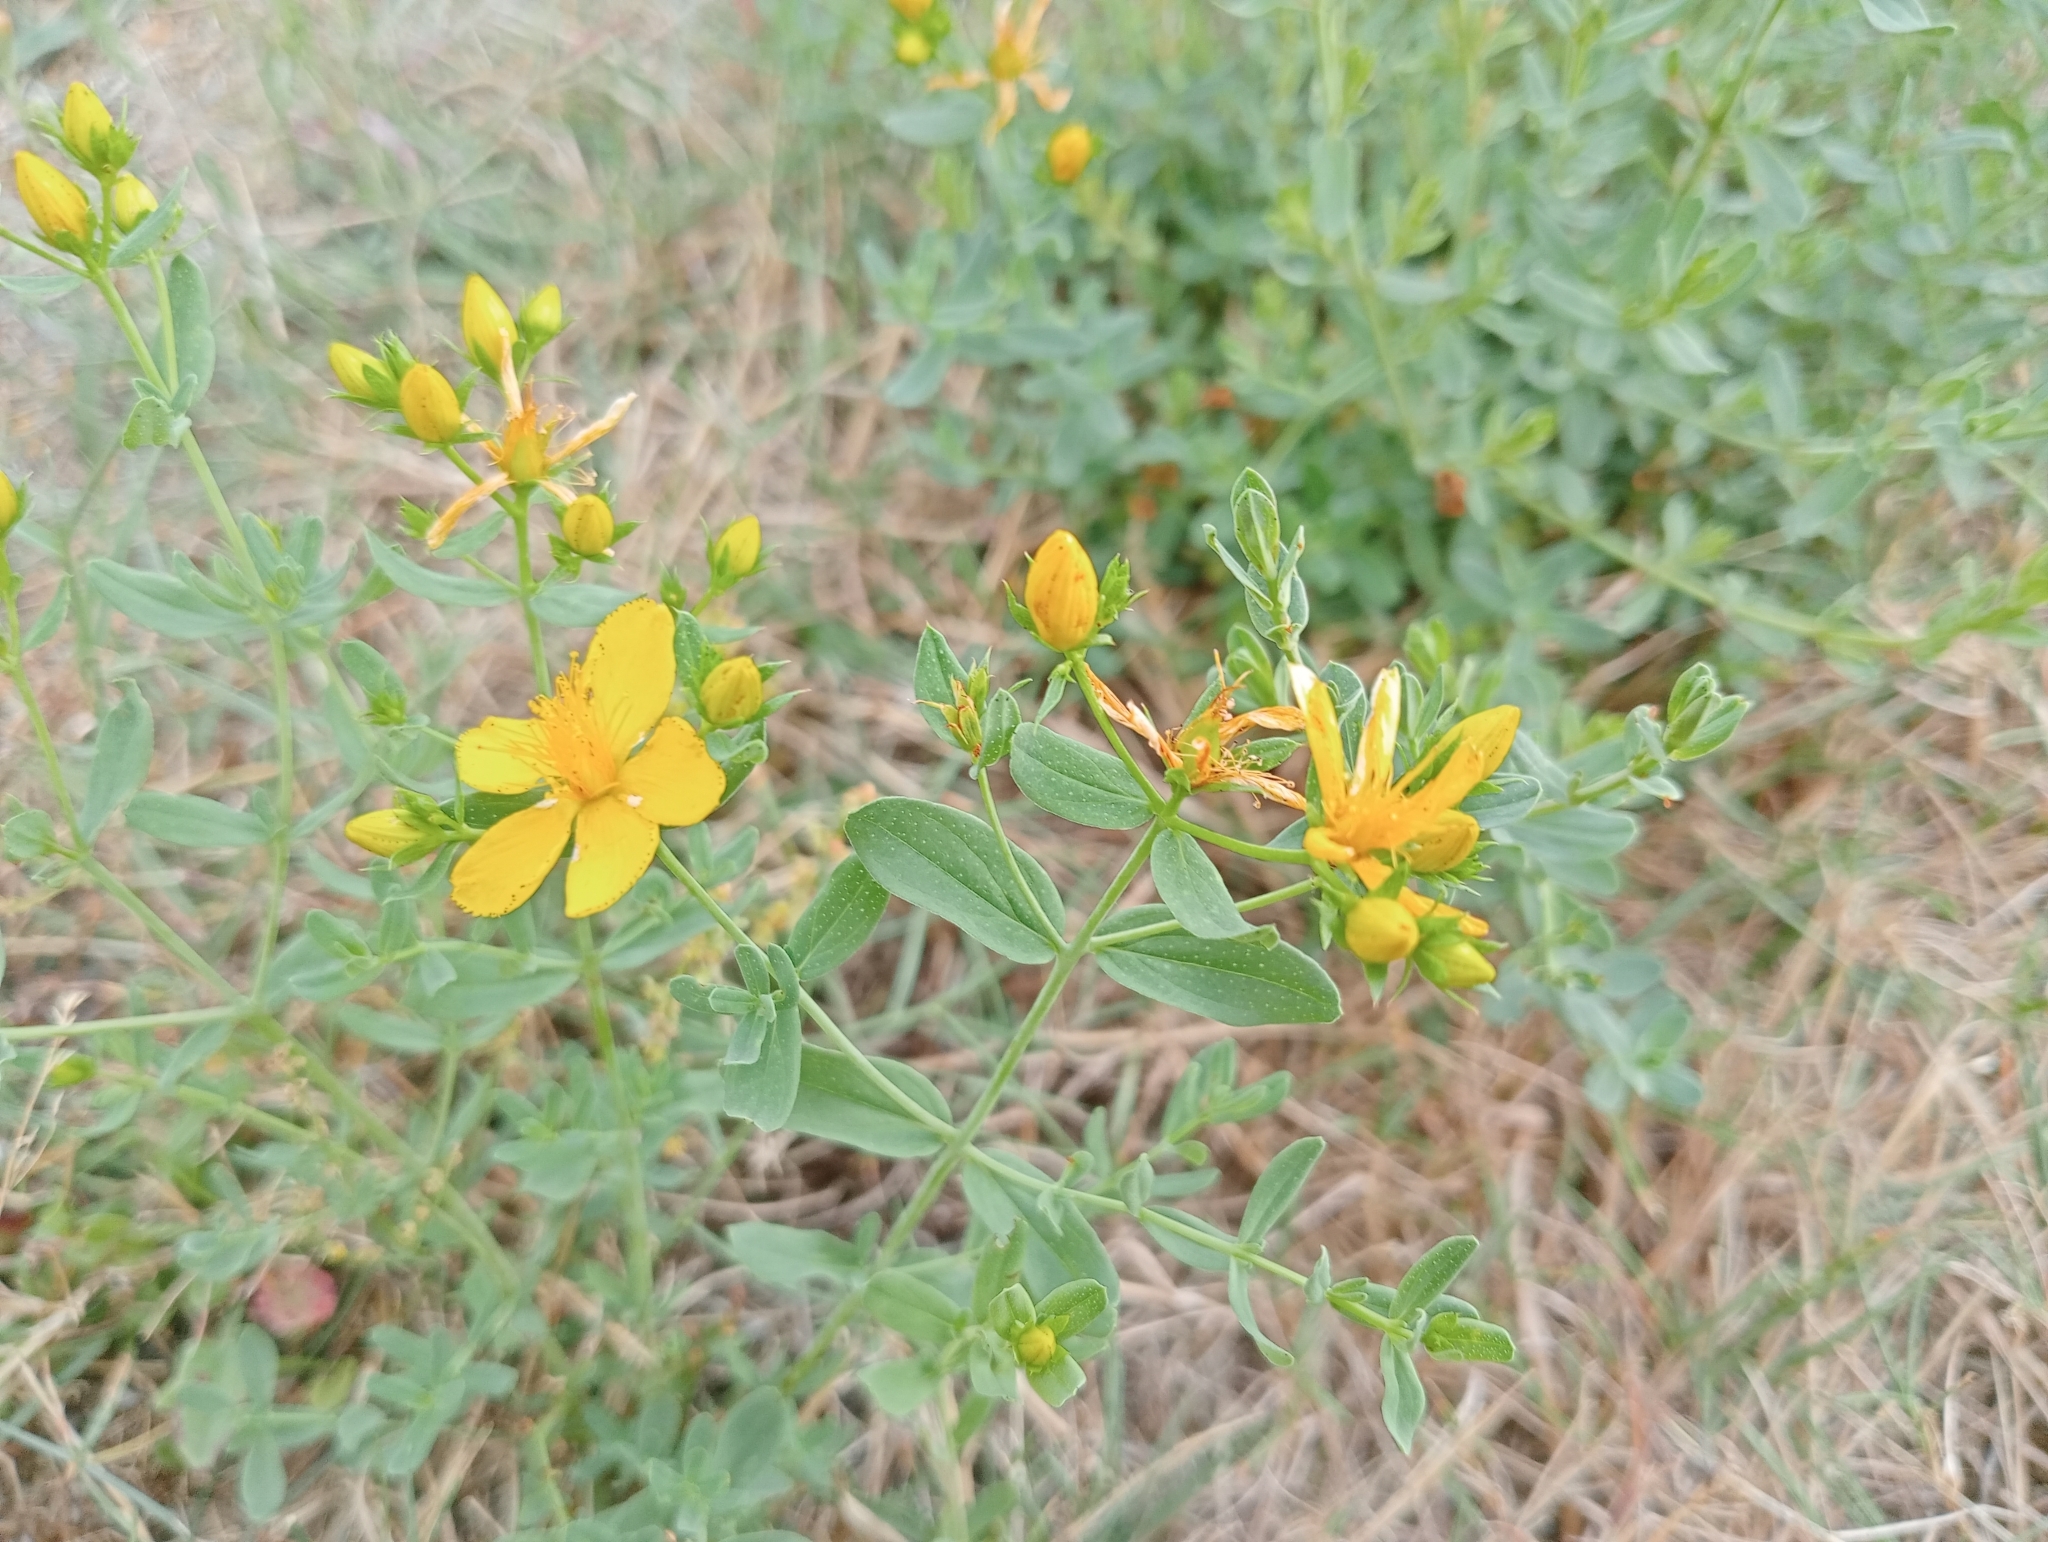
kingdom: Plantae
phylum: Tracheophyta
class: Magnoliopsida
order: Malpighiales
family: Hypericaceae
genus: Hypericum
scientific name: Hypericum perforatum
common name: Common st. johnswort
